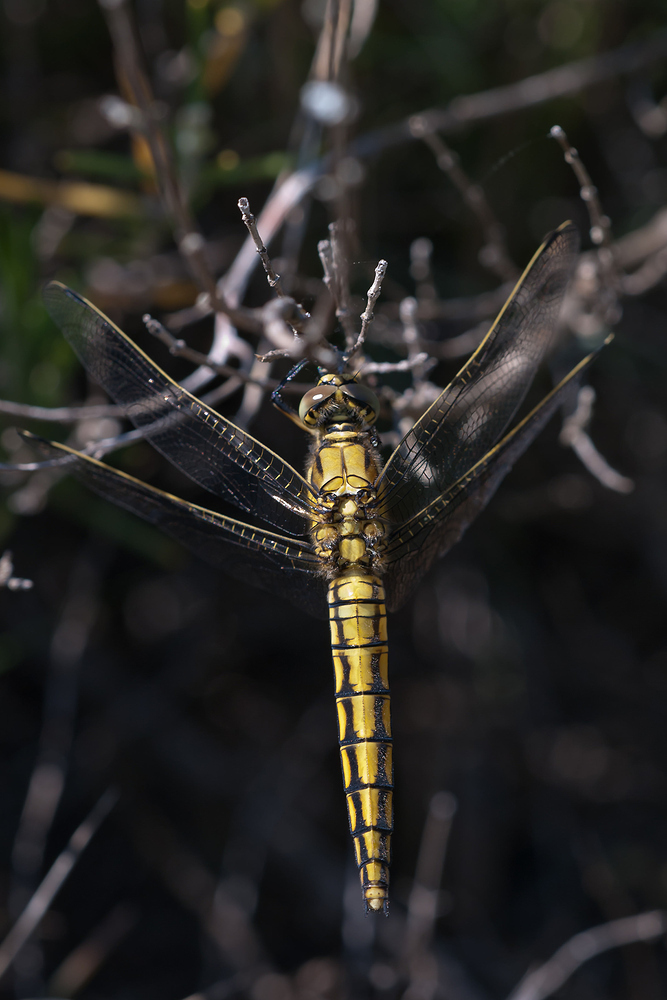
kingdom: Animalia
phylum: Arthropoda
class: Insecta
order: Odonata
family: Libellulidae
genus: Orthetrum
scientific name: Orthetrum cancellatum
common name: Black-tailed skimmer
